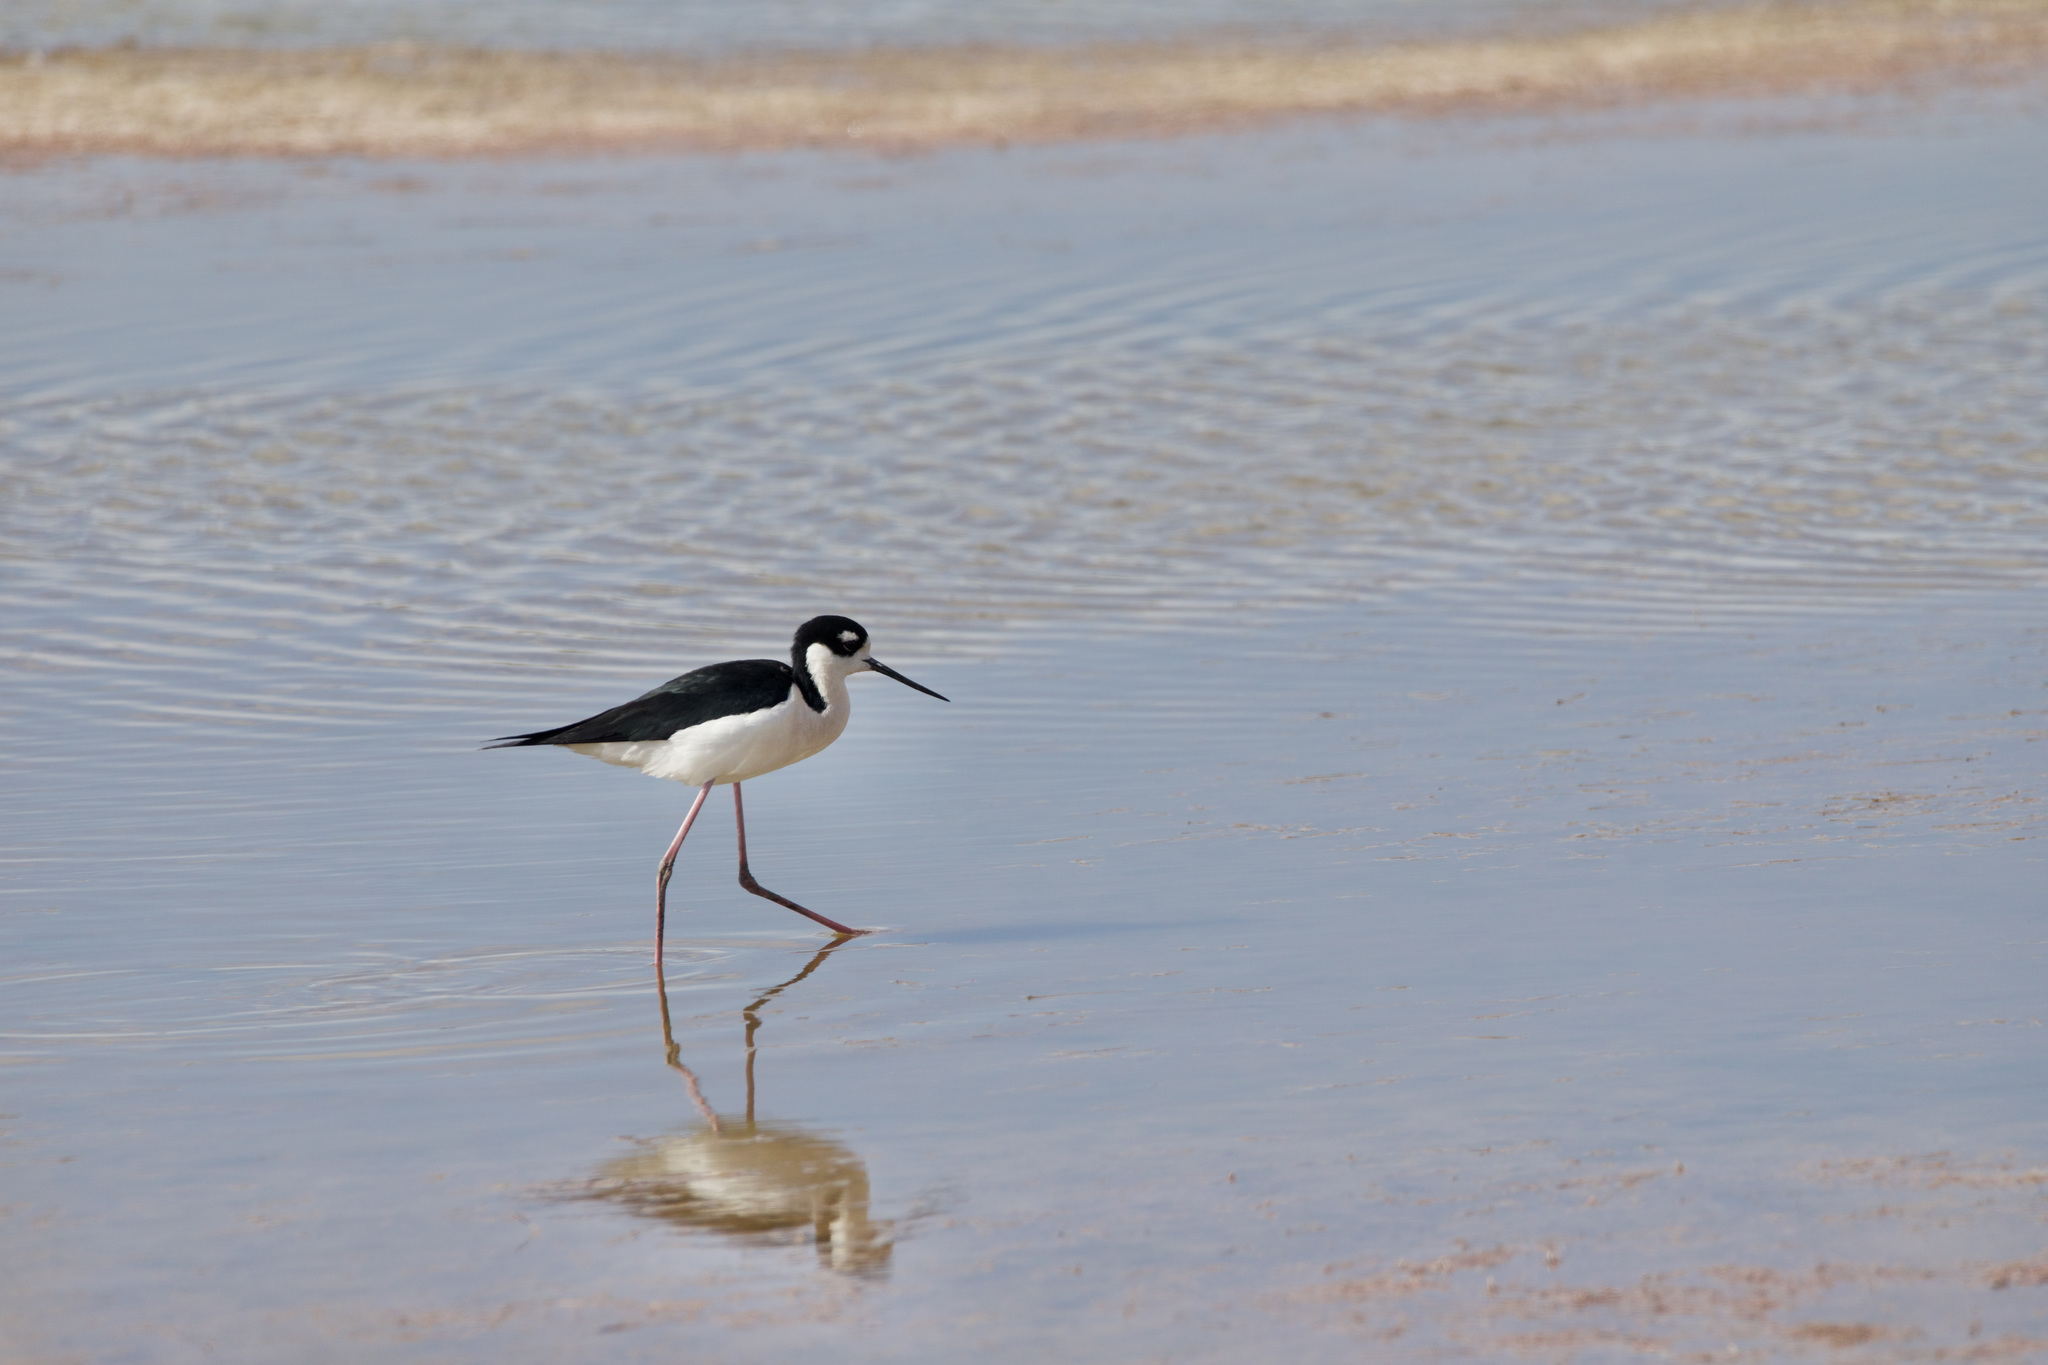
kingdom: Animalia
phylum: Chordata
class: Aves
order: Charadriiformes
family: Recurvirostridae
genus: Himantopus
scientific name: Himantopus mexicanus
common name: Black-necked stilt
